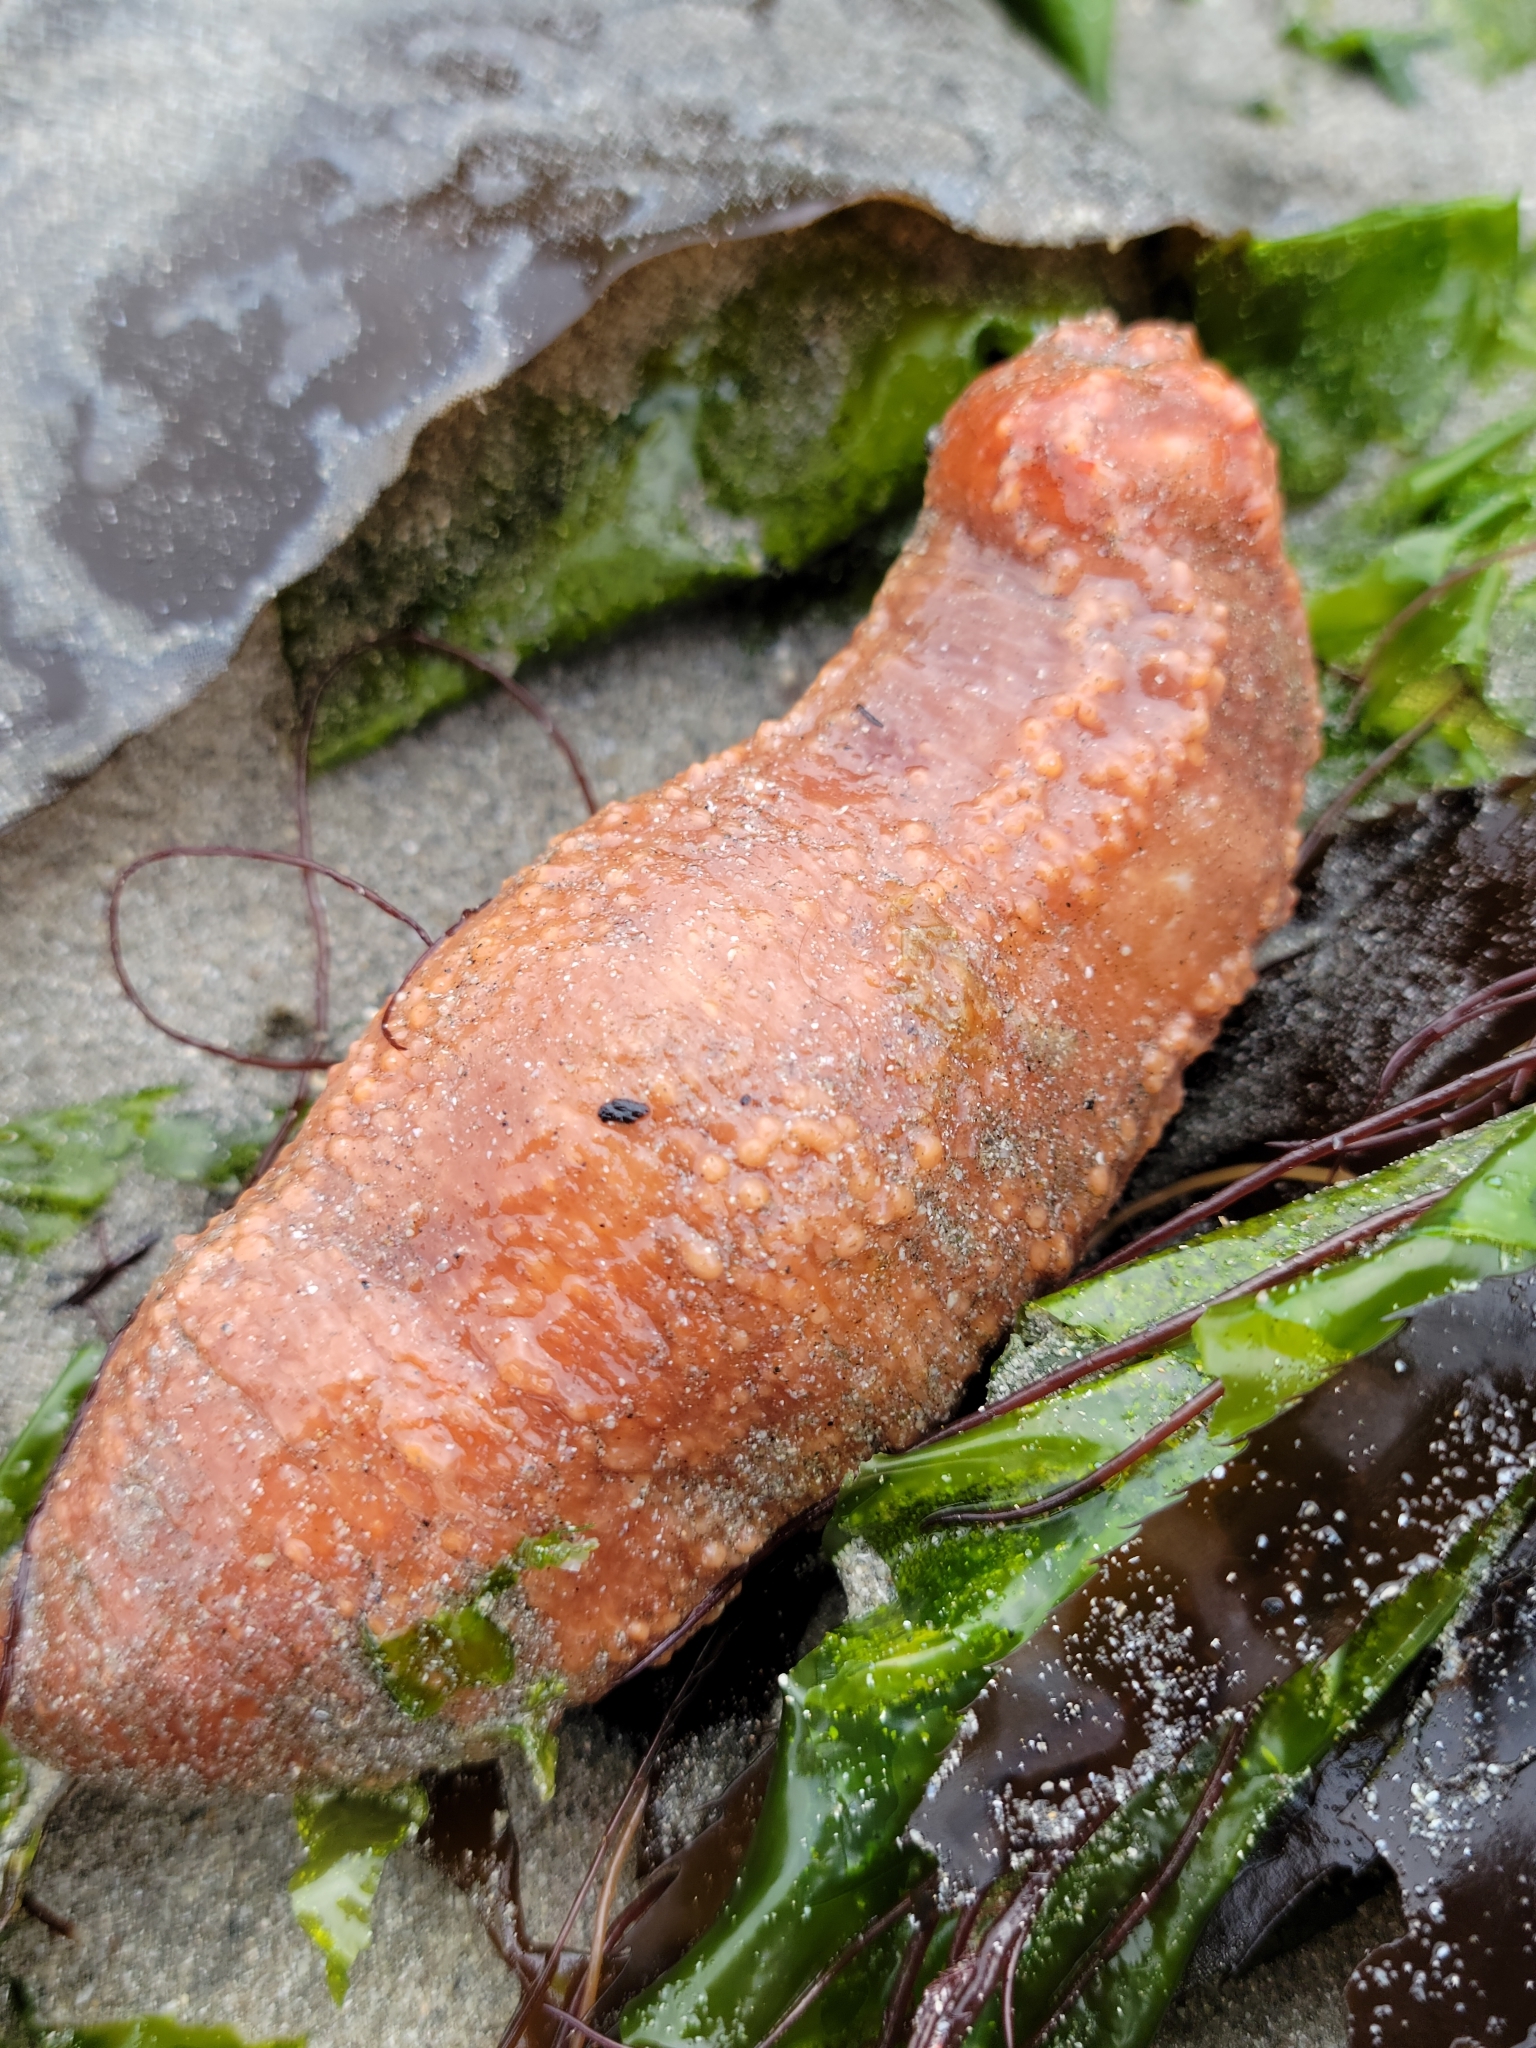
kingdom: Animalia
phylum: Echinodermata
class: Holothuroidea
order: Dendrochirotida
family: Cucumariidae
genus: Cucumaria
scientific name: Cucumaria miniata
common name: Orange sea cucumber
